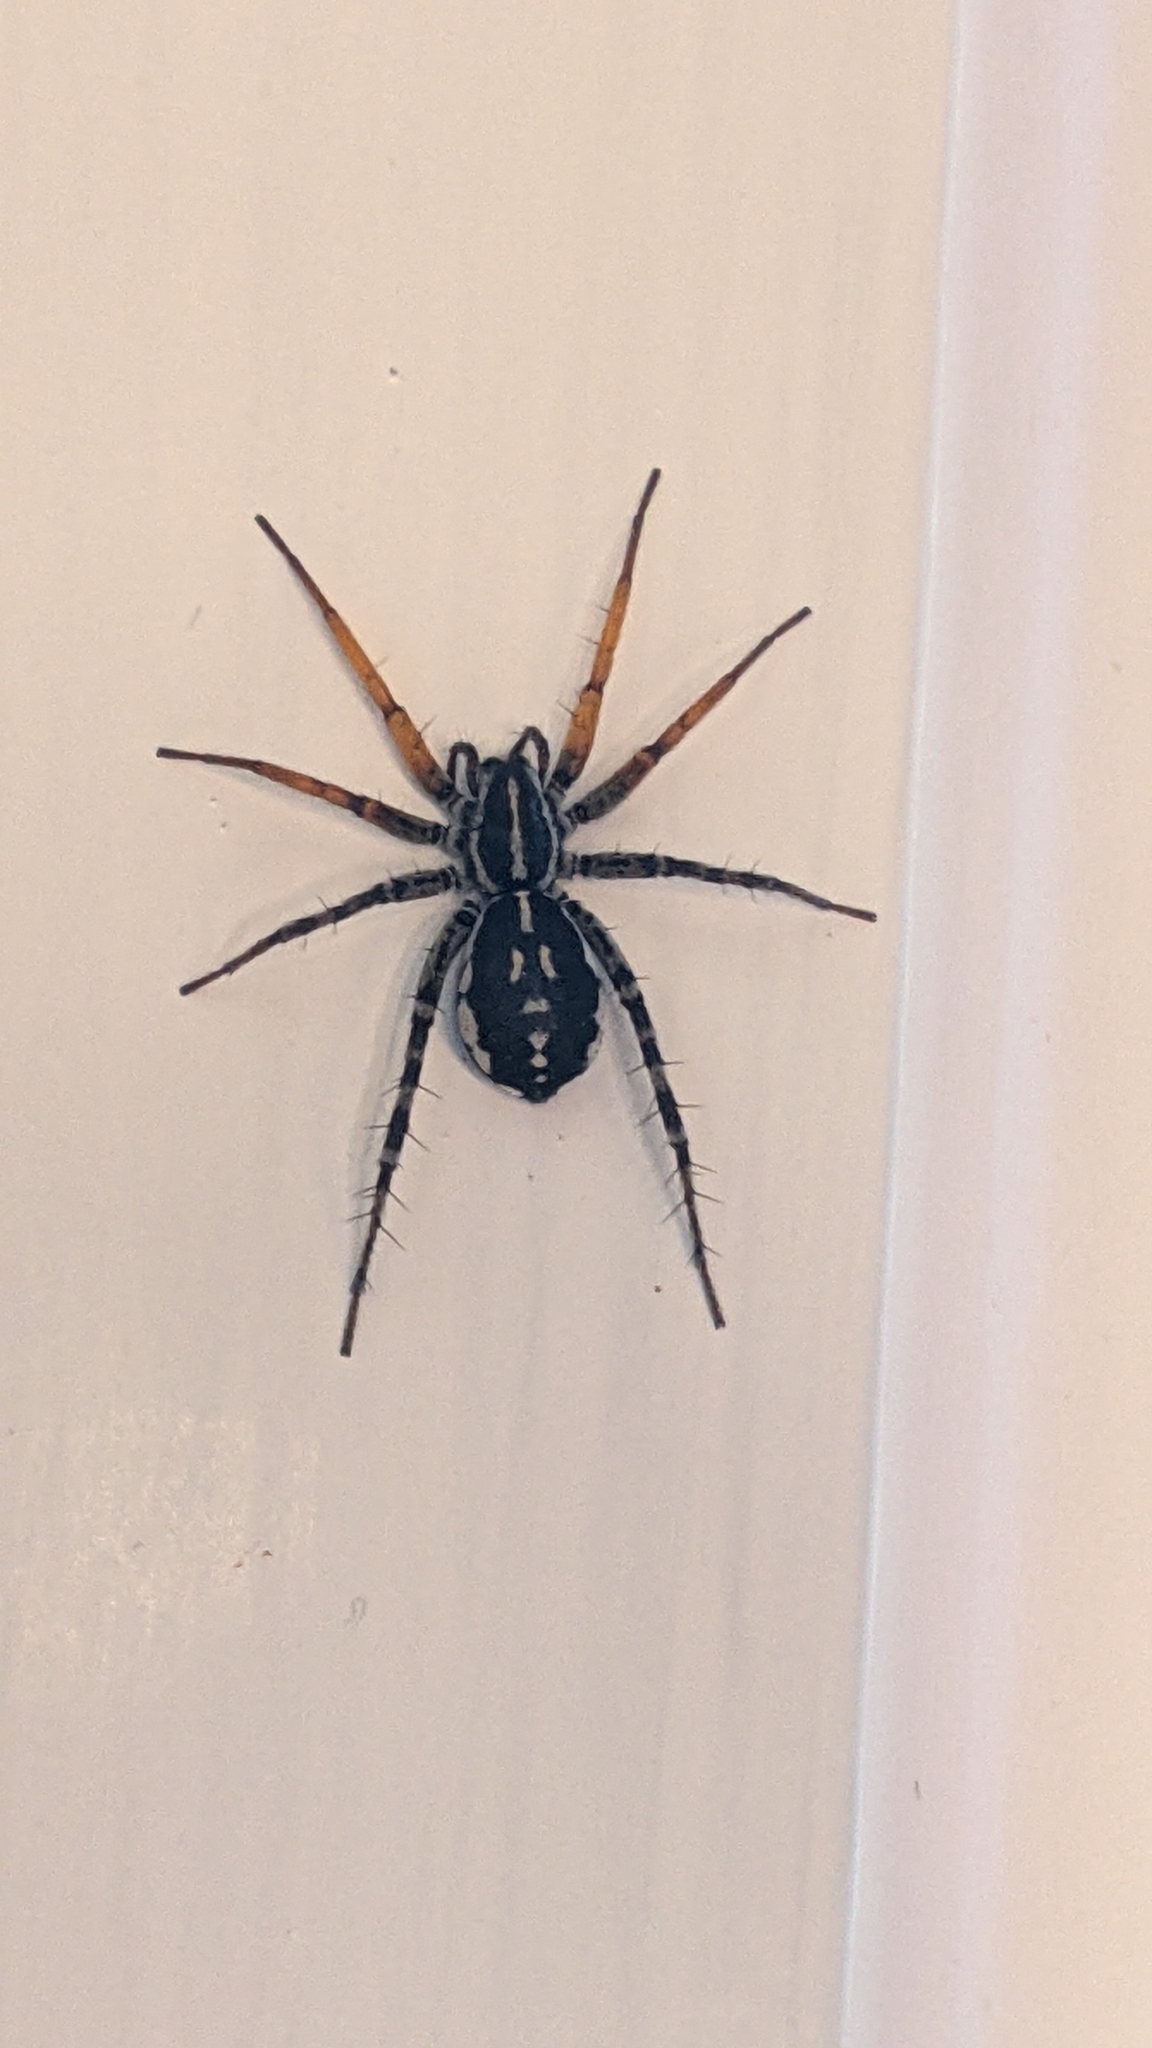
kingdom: Animalia
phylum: Arthropoda
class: Arachnida
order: Araneae
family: Corinnidae
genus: Nyssus
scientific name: Nyssus coloripes
